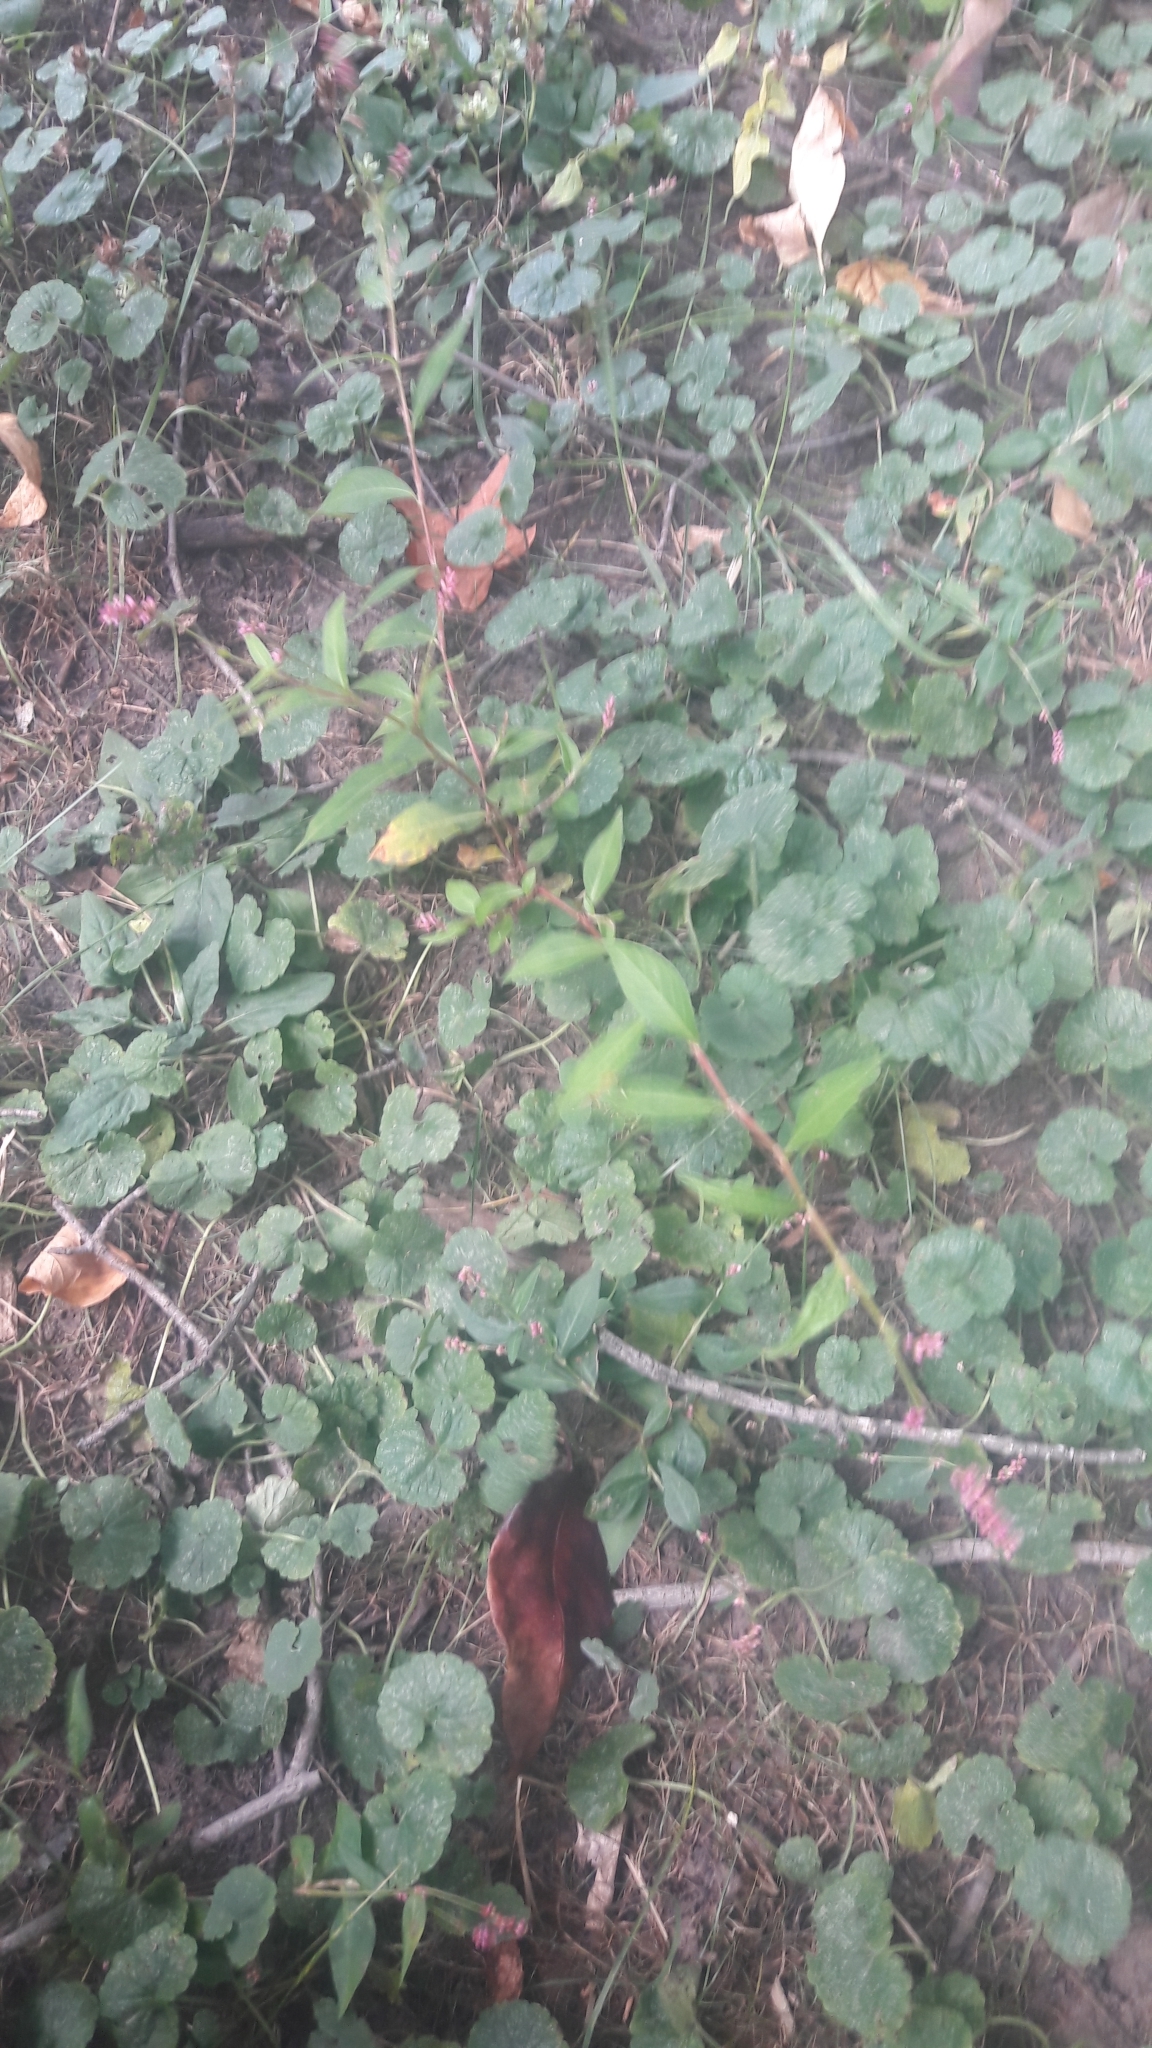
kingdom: Plantae
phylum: Tracheophyta
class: Magnoliopsida
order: Caryophyllales
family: Polygonaceae
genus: Persicaria
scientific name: Persicaria longiseta
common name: Bristly lady's-thumb
